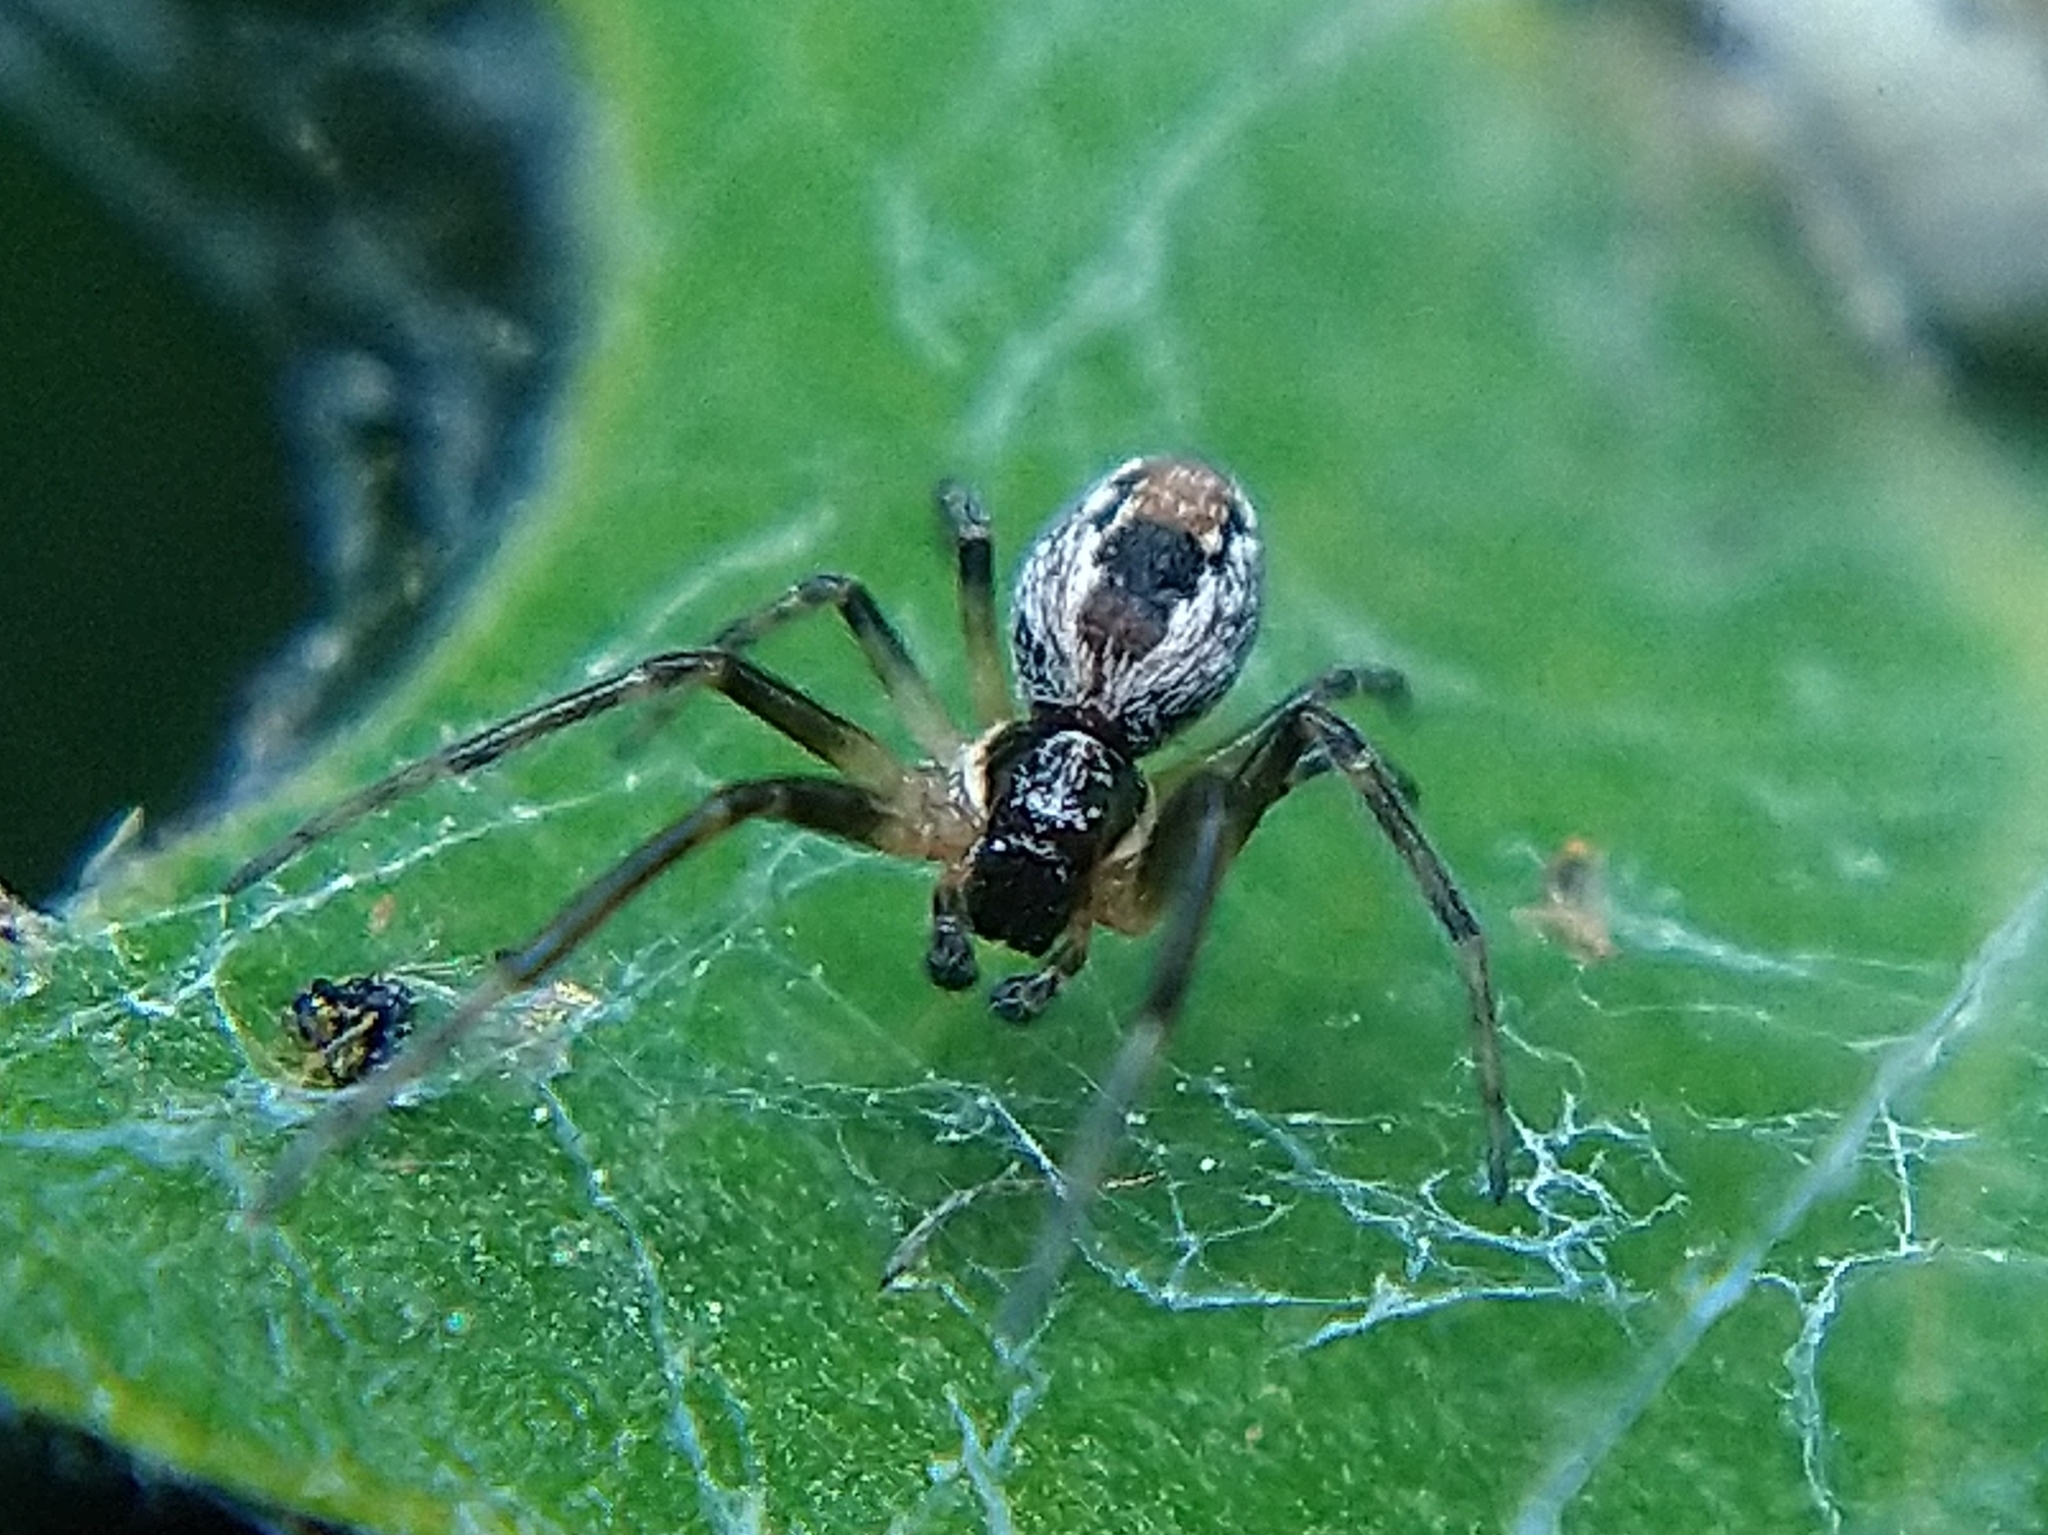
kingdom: Animalia
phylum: Arthropoda
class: Arachnida
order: Araneae
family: Dictynidae
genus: Mallos
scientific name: Mallos
